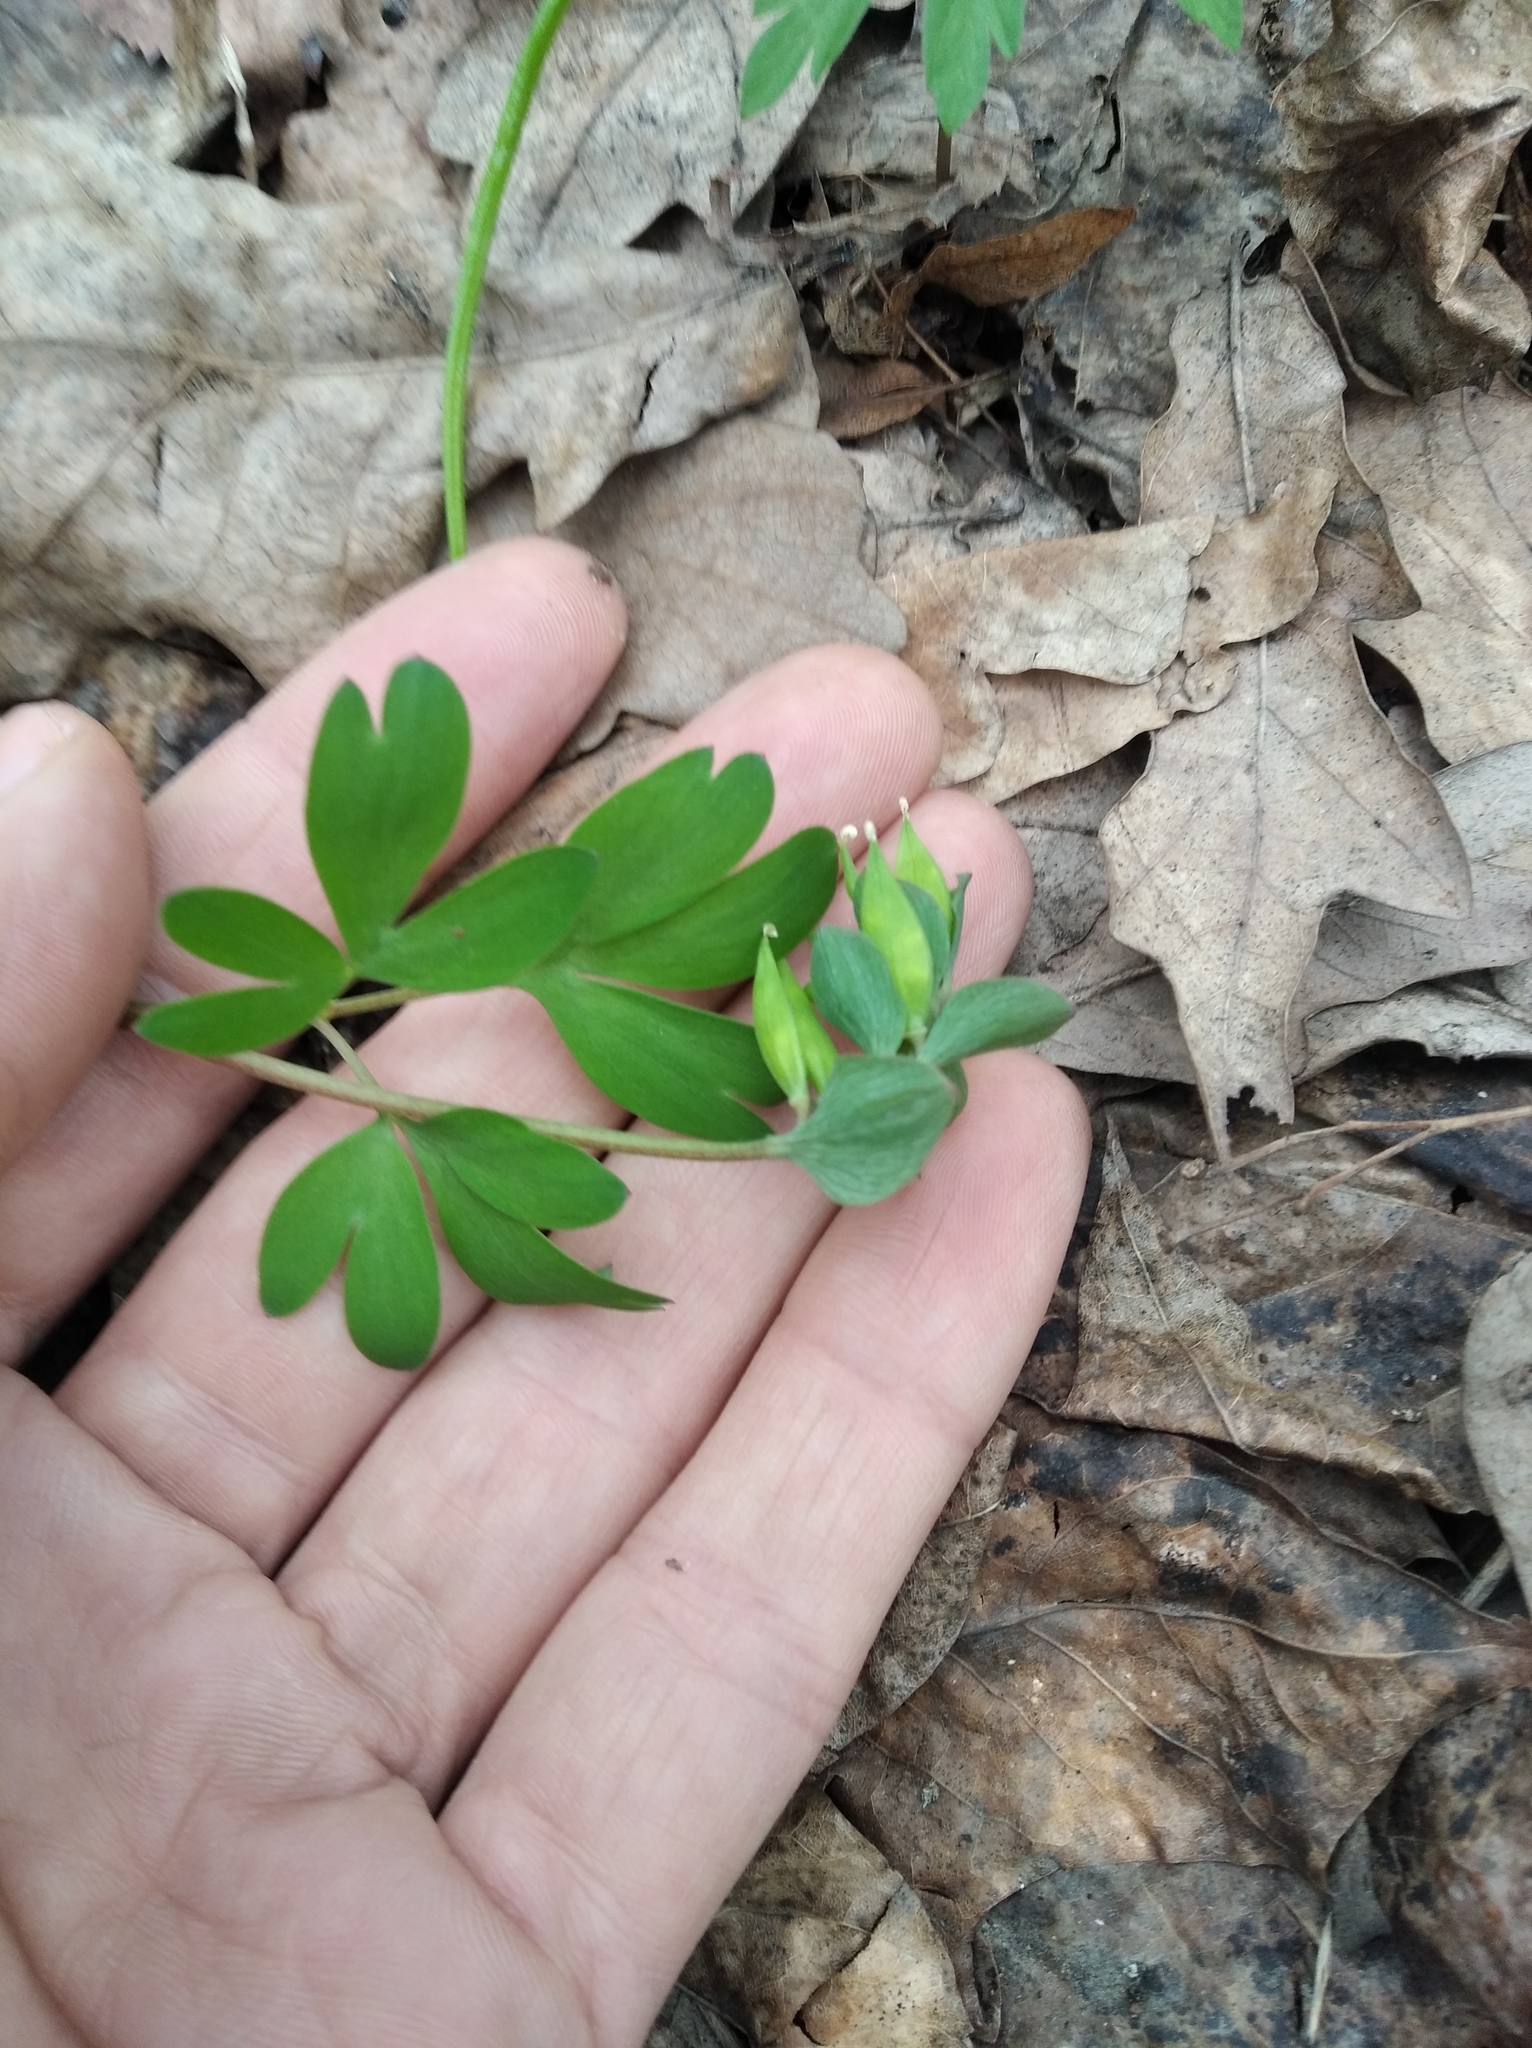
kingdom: Plantae
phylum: Tracheophyta
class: Magnoliopsida
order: Ranunculales
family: Papaveraceae
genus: Corydalis
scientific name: Corydalis intermedia
